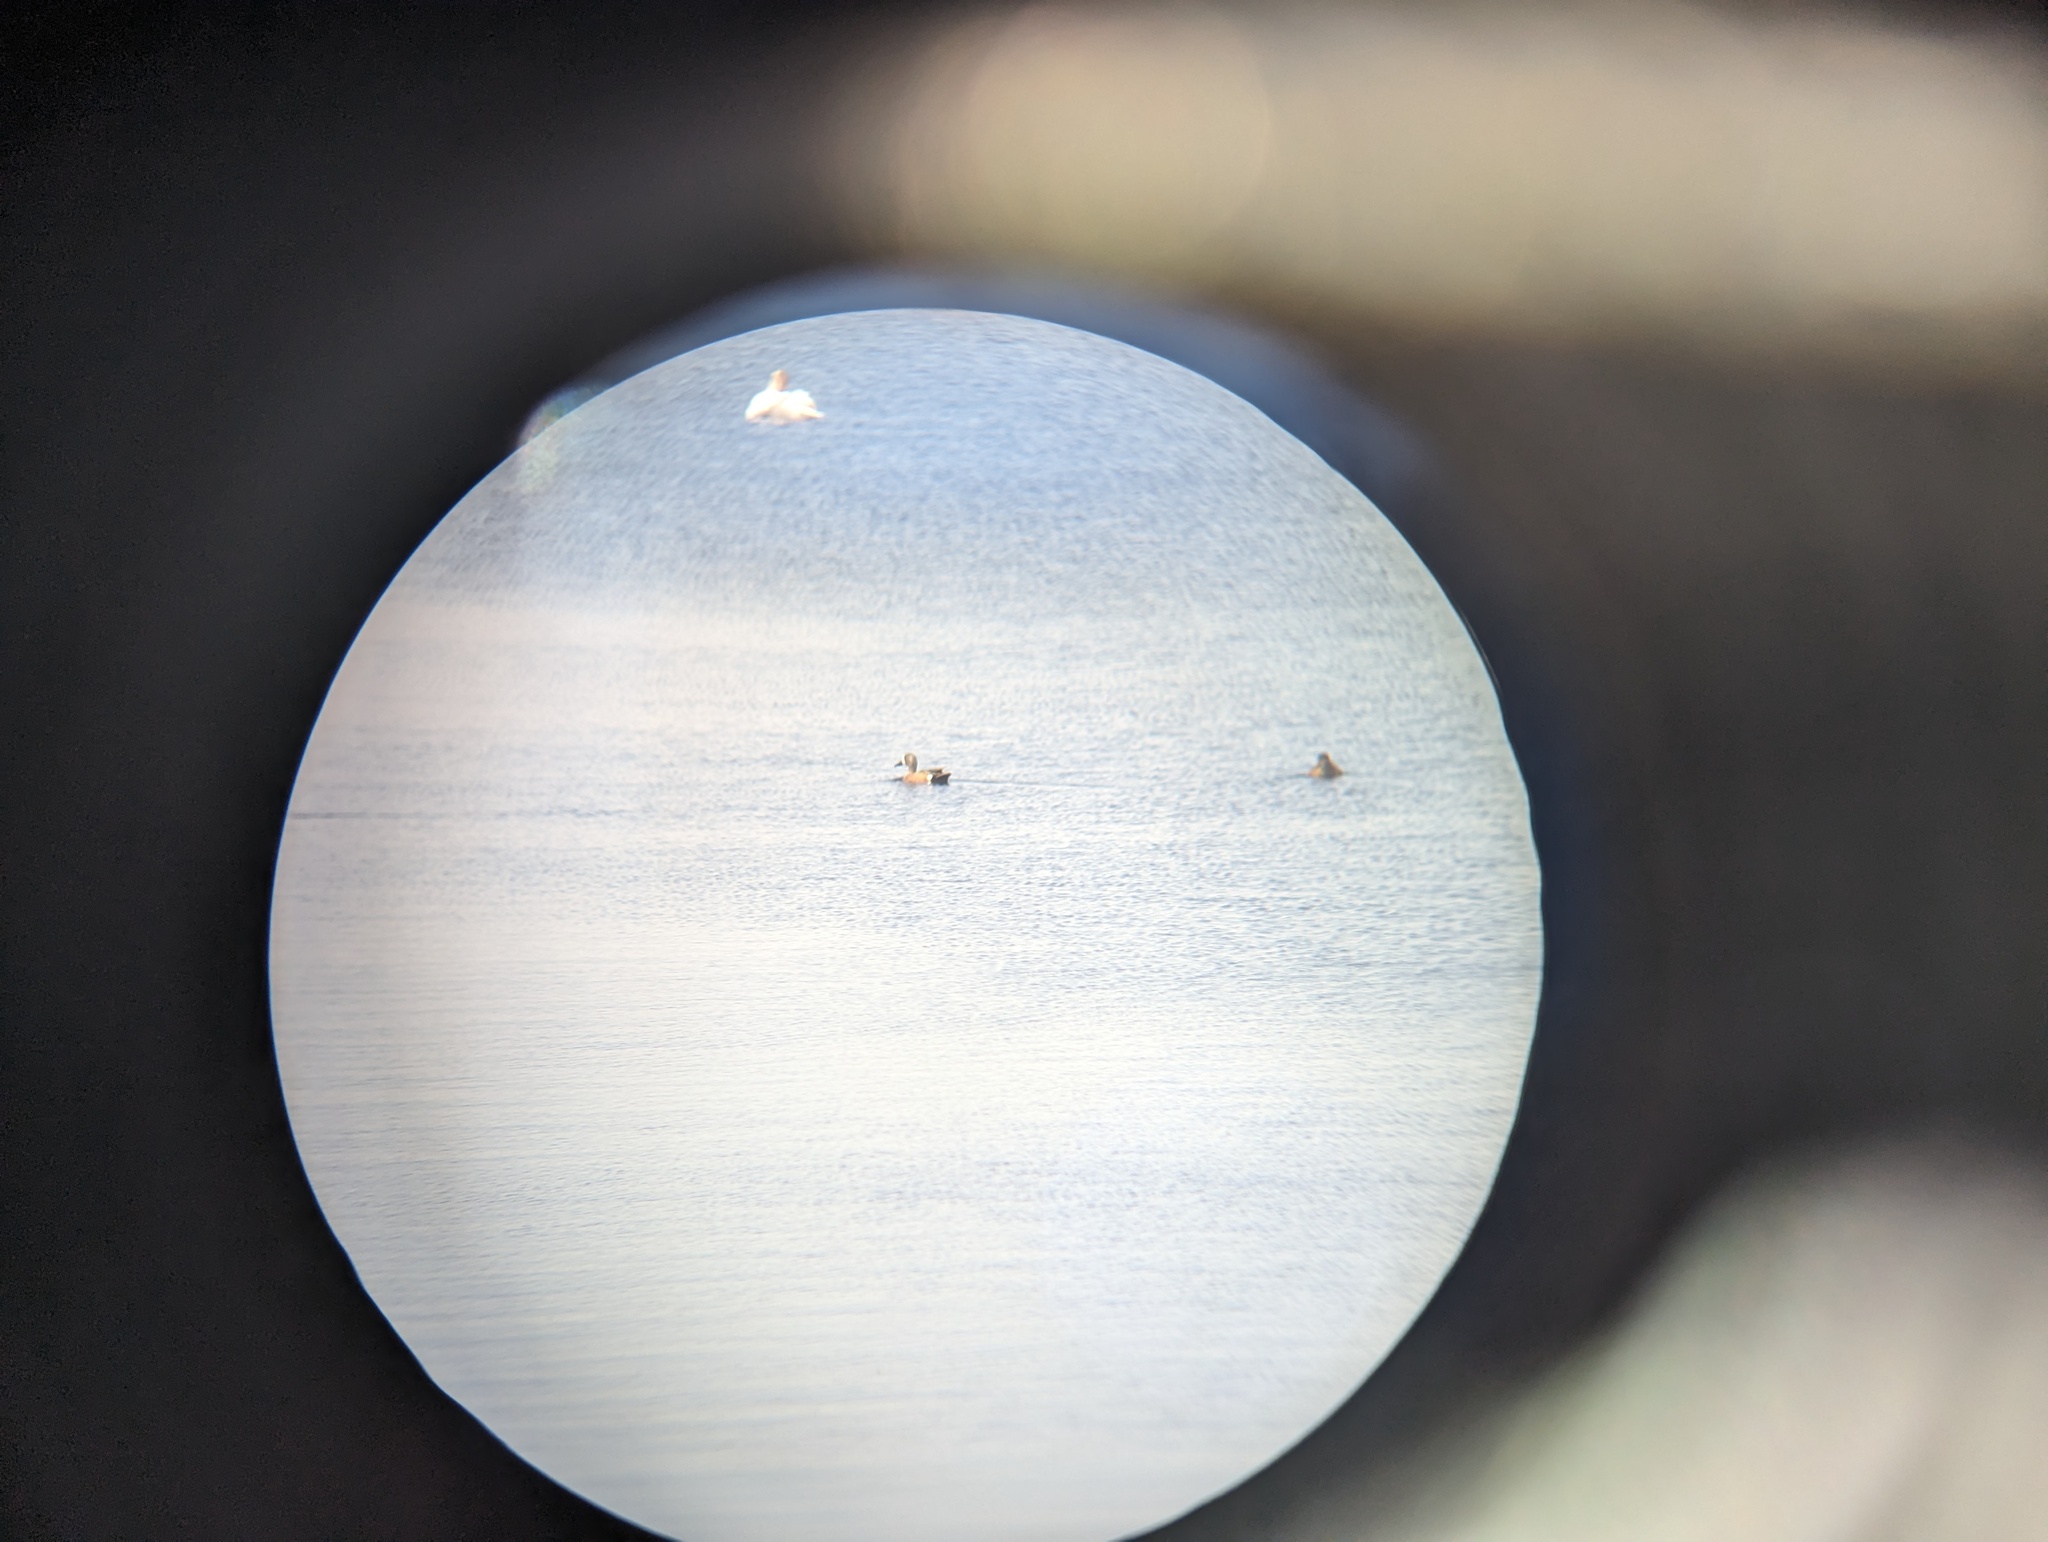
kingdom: Animalia
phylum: Chordata
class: Aves
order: Anseriformes
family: Anatidae
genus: Spatula
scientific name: Spatula discors
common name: Blue-winged teal
